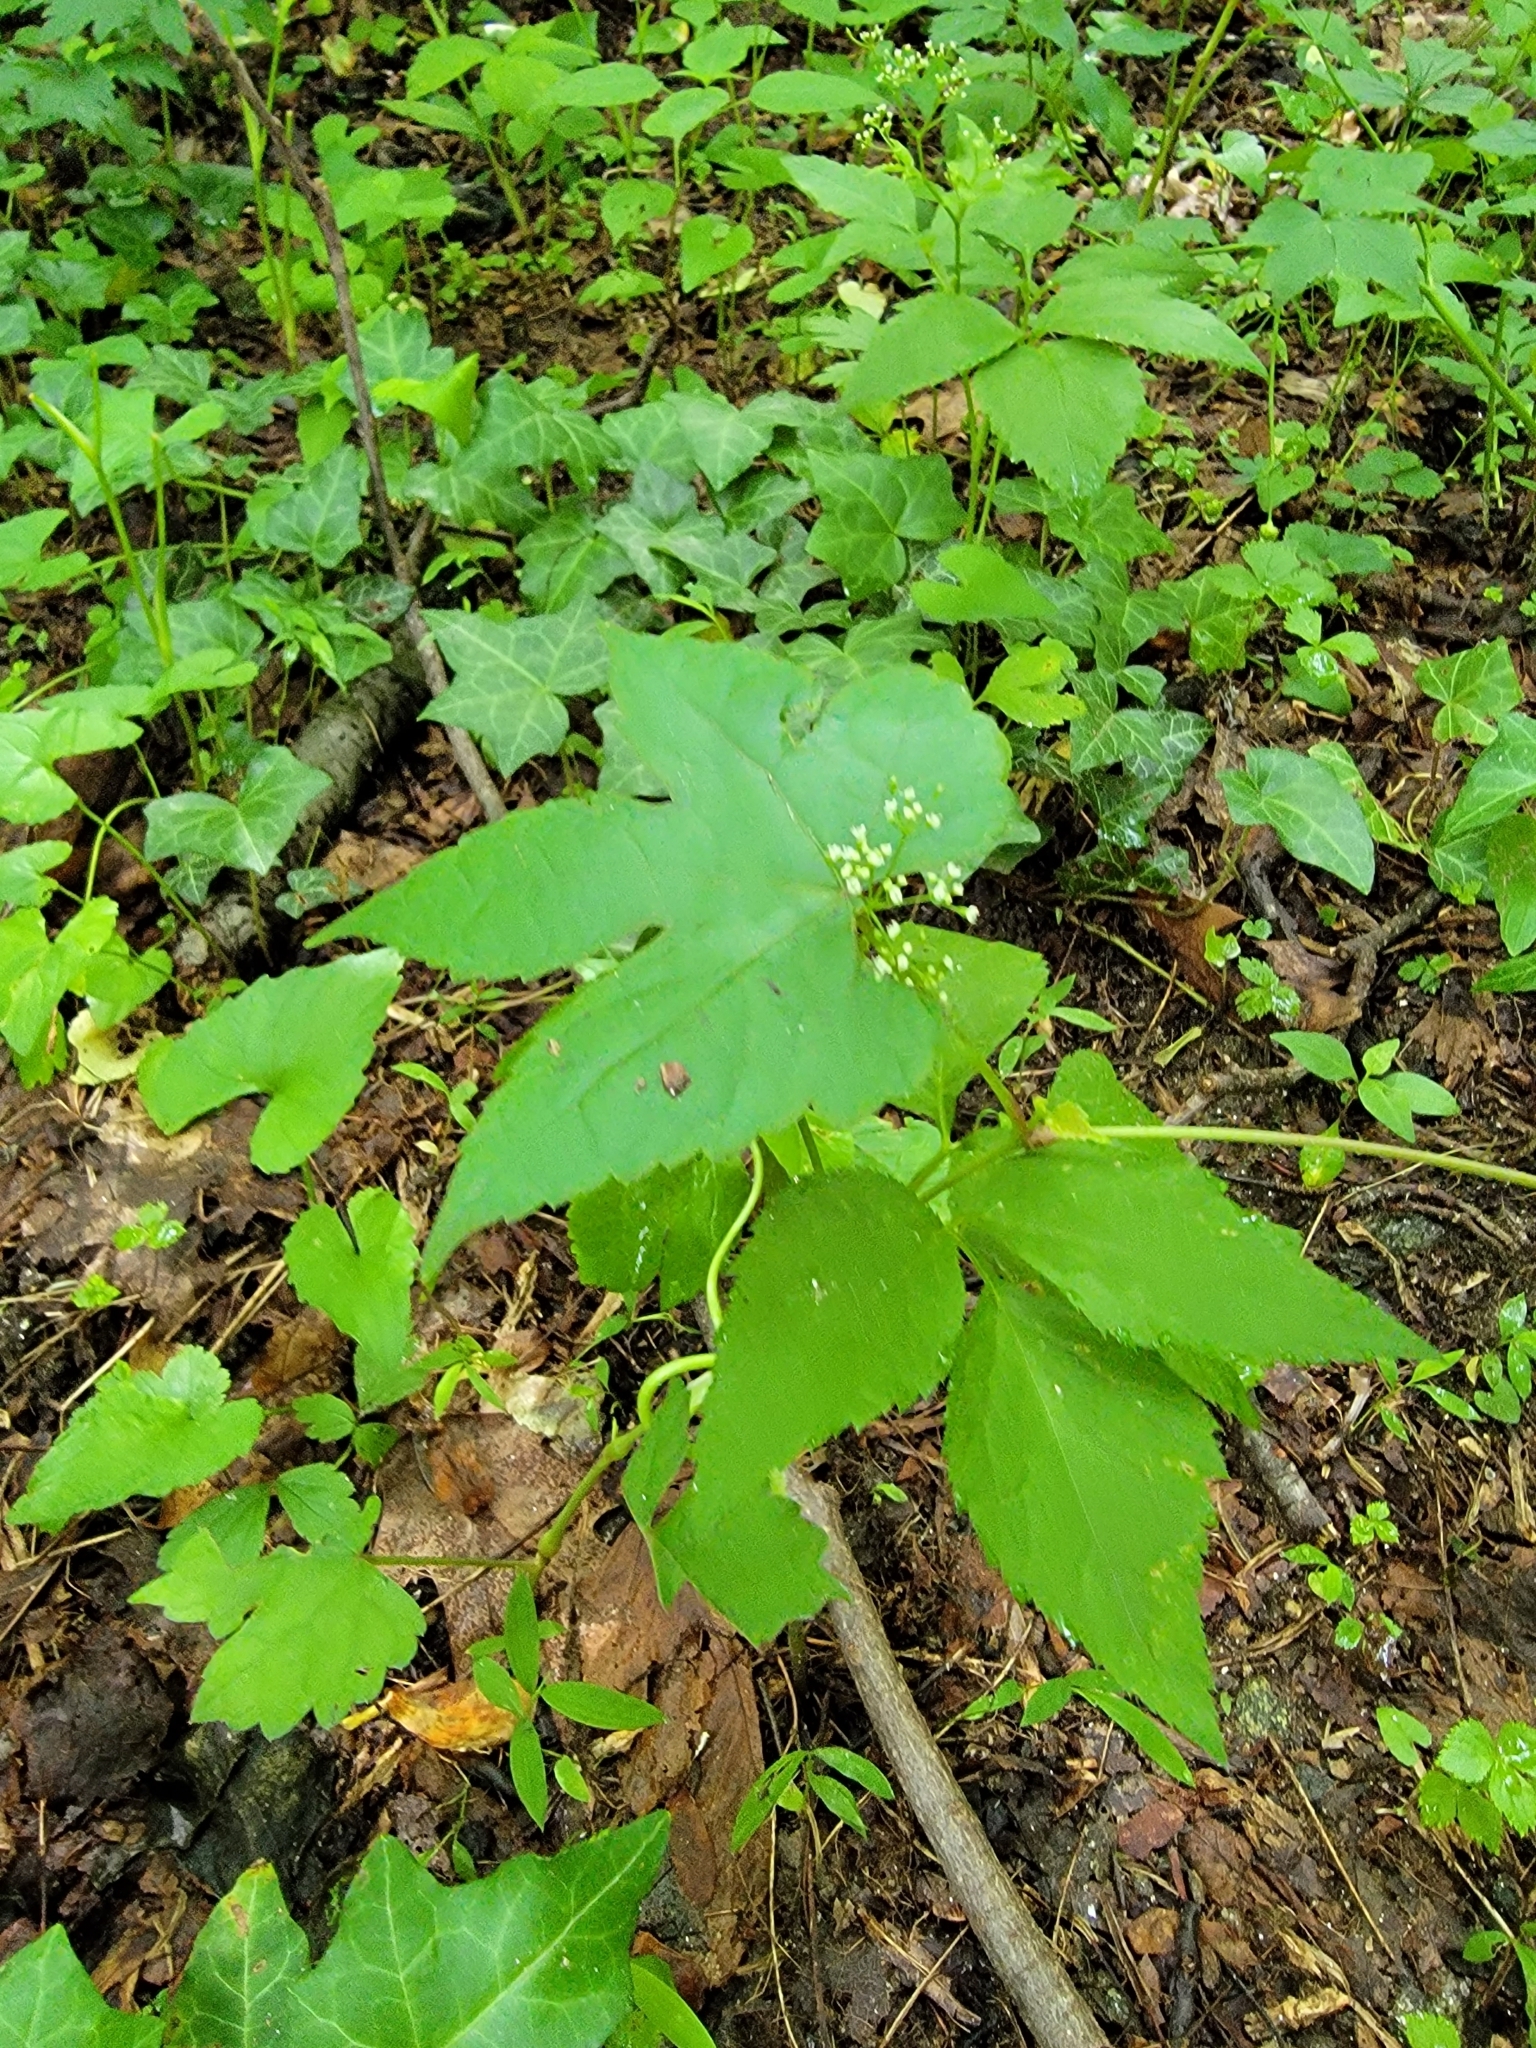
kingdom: Plantae
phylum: Tracheophyta
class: Magnoliopsida
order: Apiales
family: Apiaceae
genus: Cryptotaenia
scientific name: Cryptotaenia canadensis
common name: Honewort
